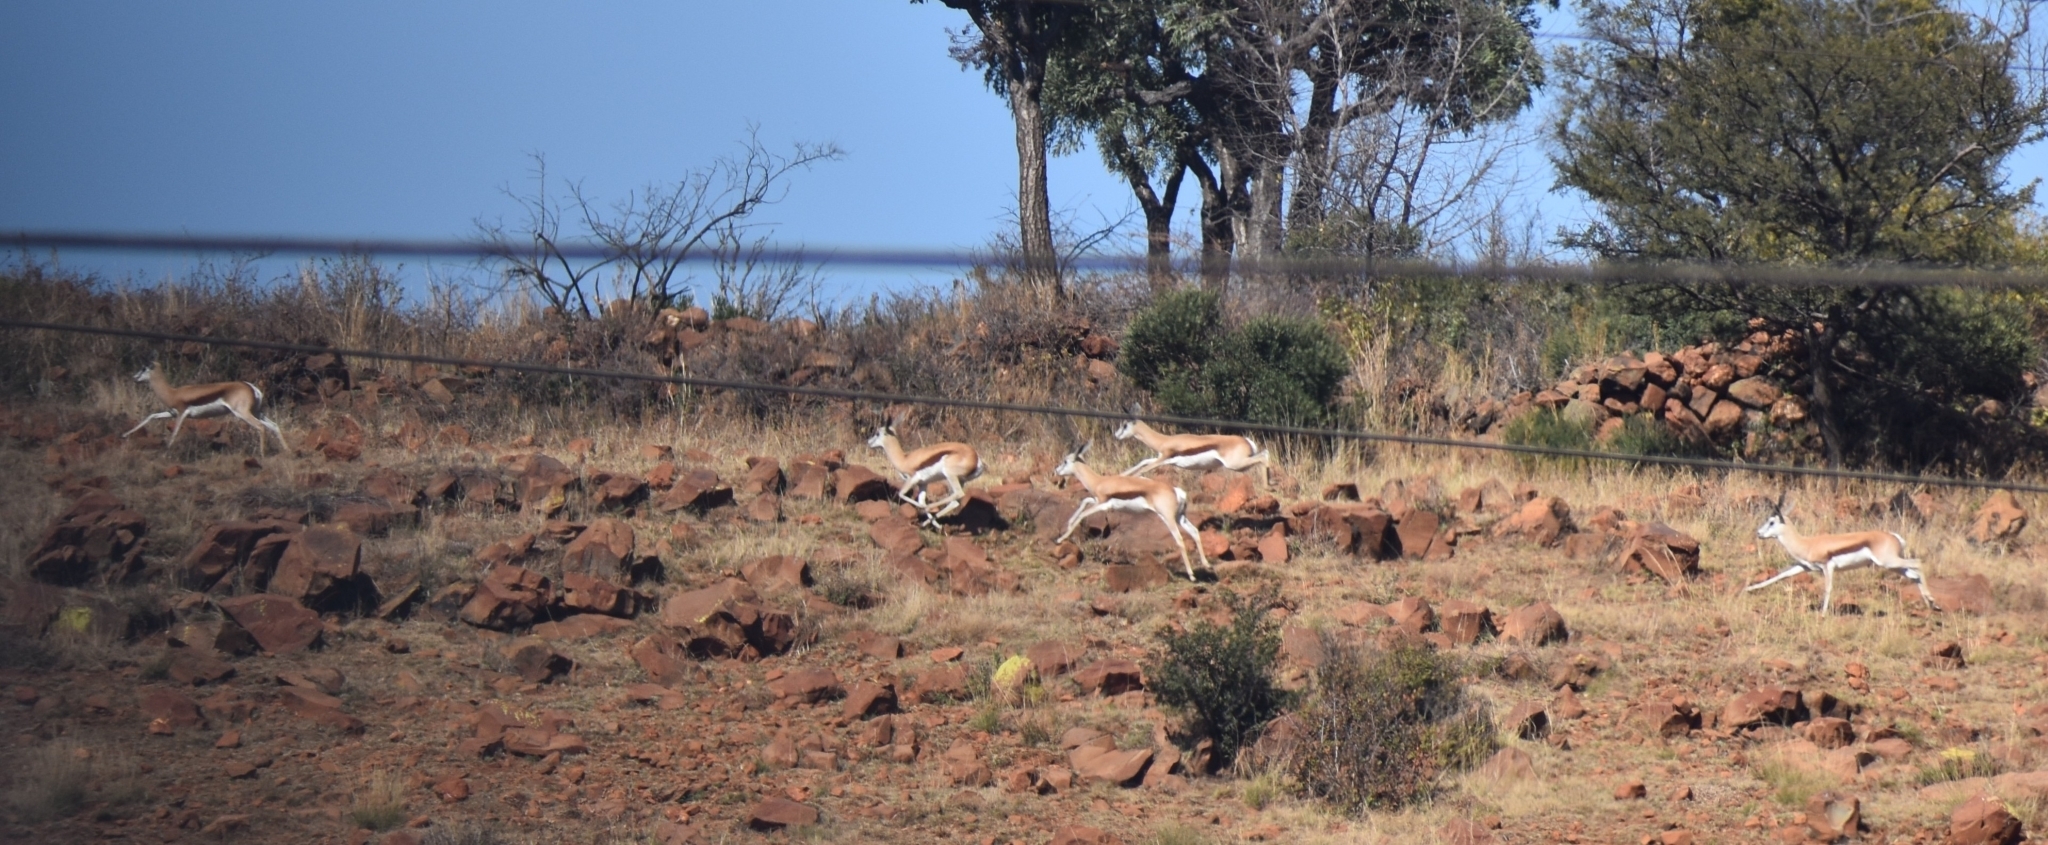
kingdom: Animalia
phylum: Chordata
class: Mammalia
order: Artiodactyla
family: Bovidae
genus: Antidorcas
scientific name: Antidorcas marsupialis
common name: Springbok
